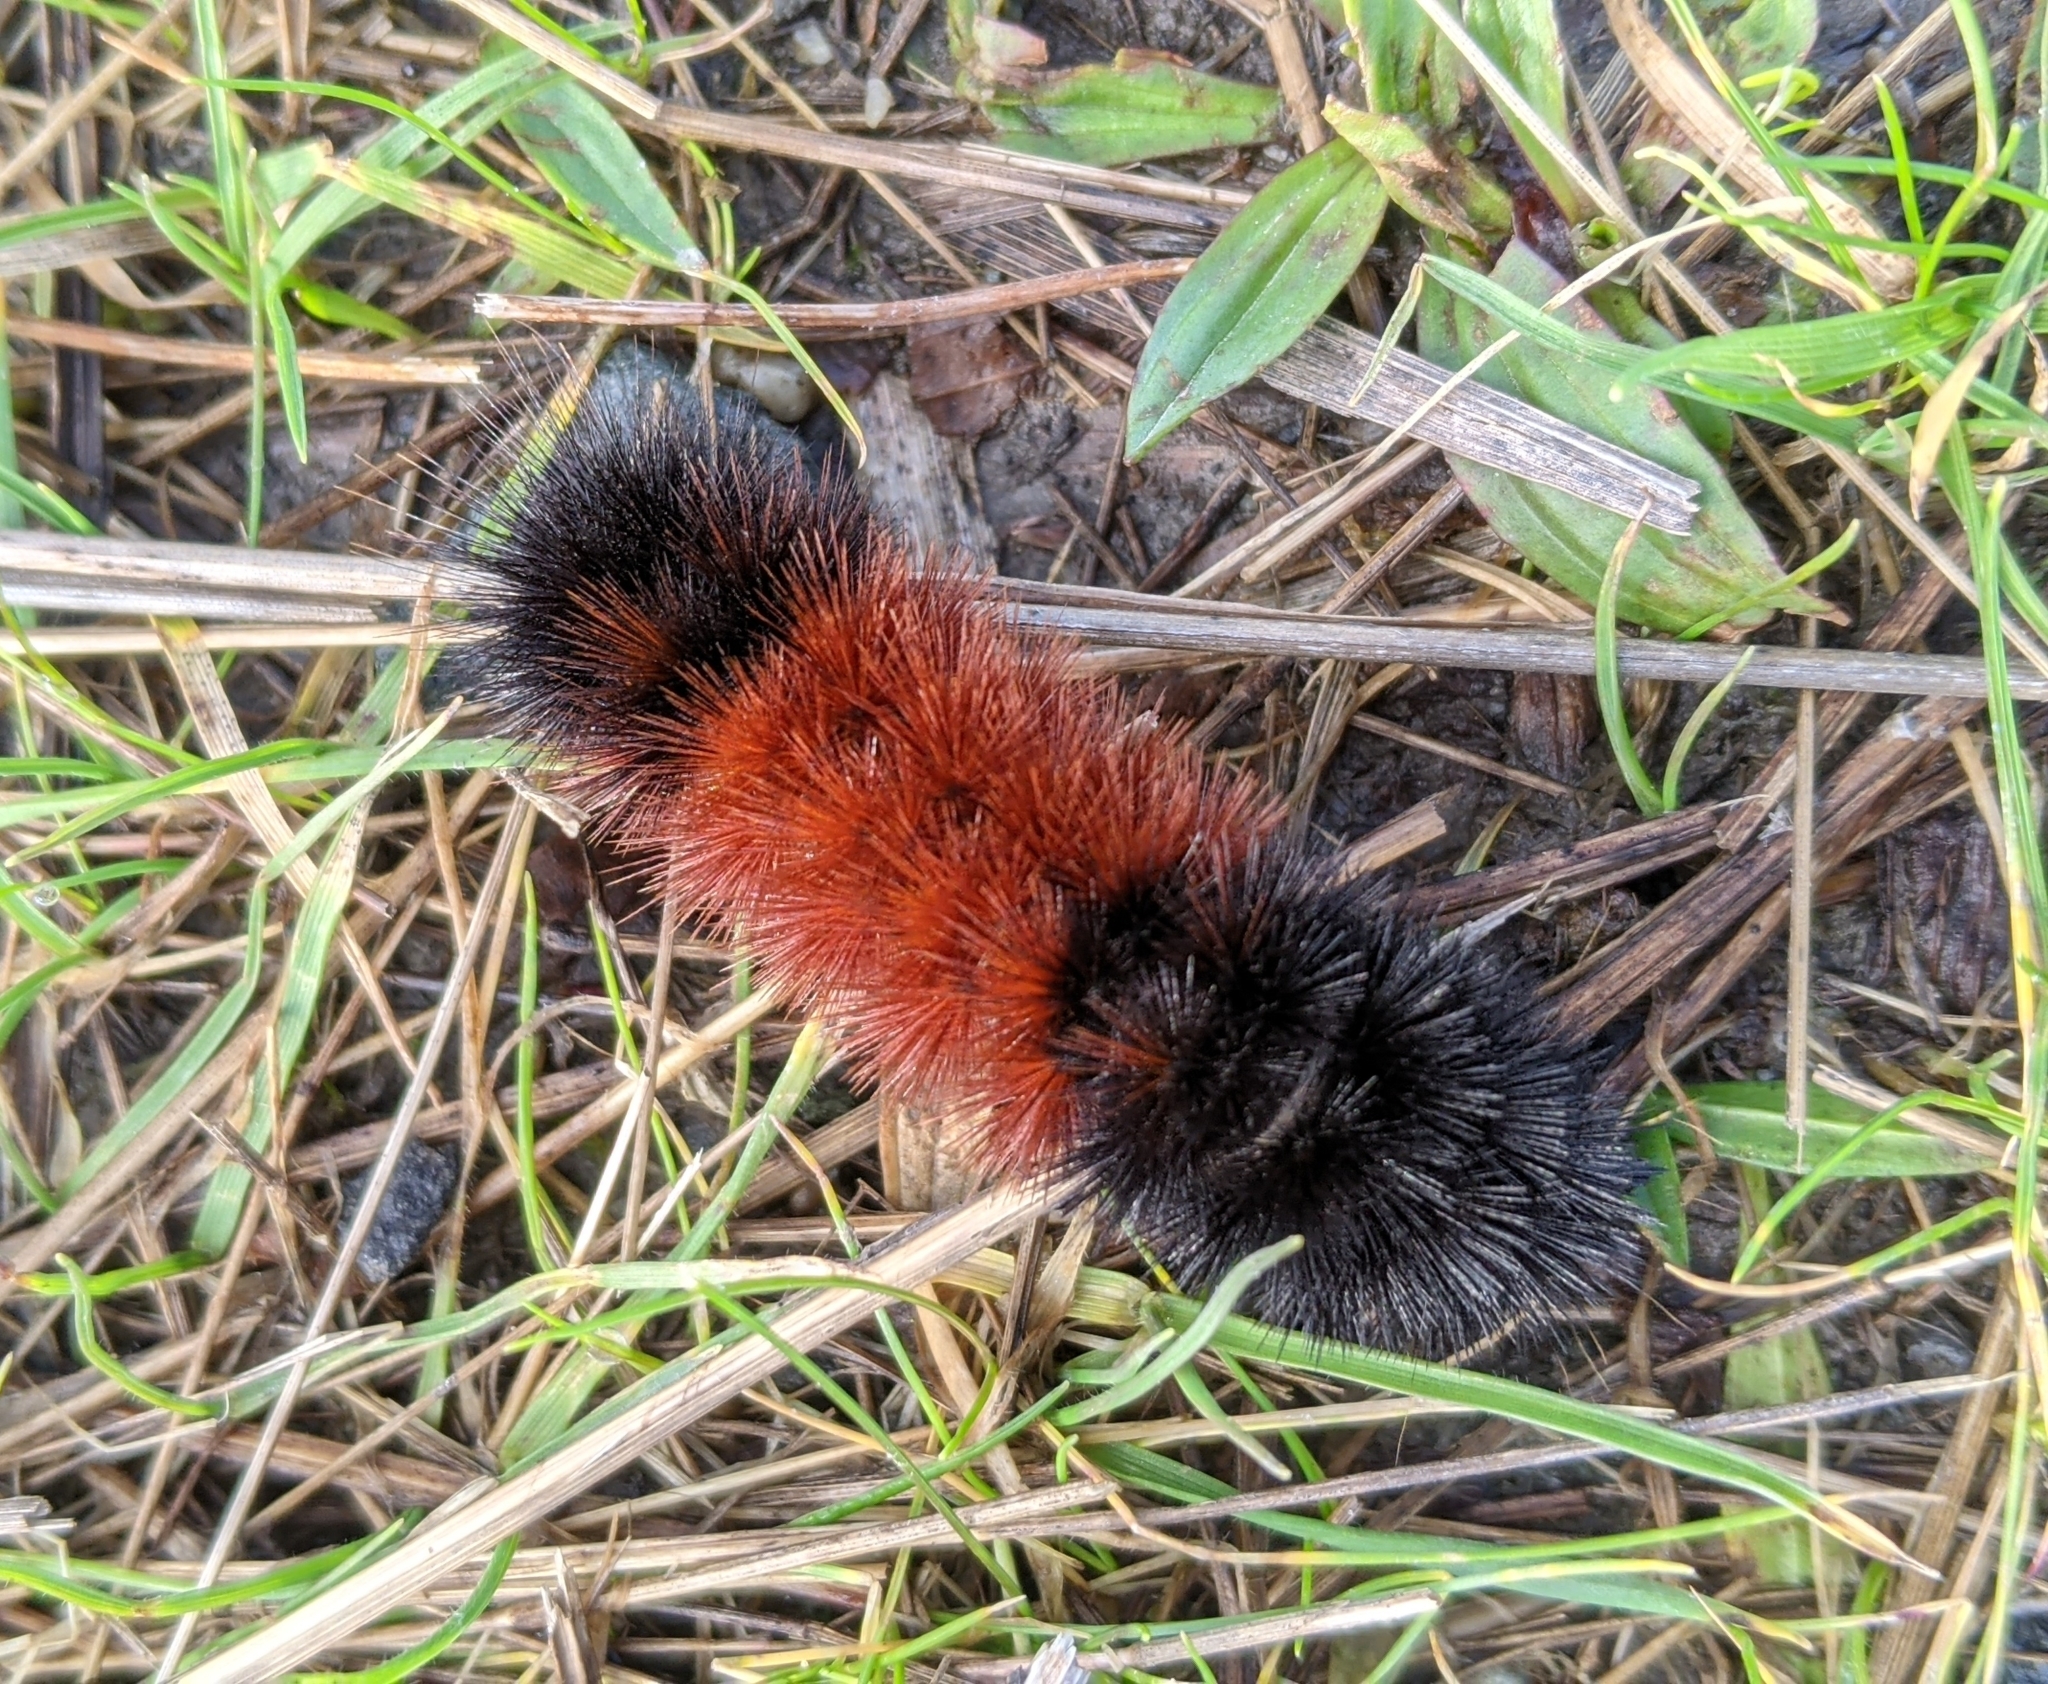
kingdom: Animalia
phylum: Arthropoda
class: Insecta
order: Lepidoptera
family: Erebidae
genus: Pyrrharctia
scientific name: Pyrrharctia isabella
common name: Isabella tiger moth
